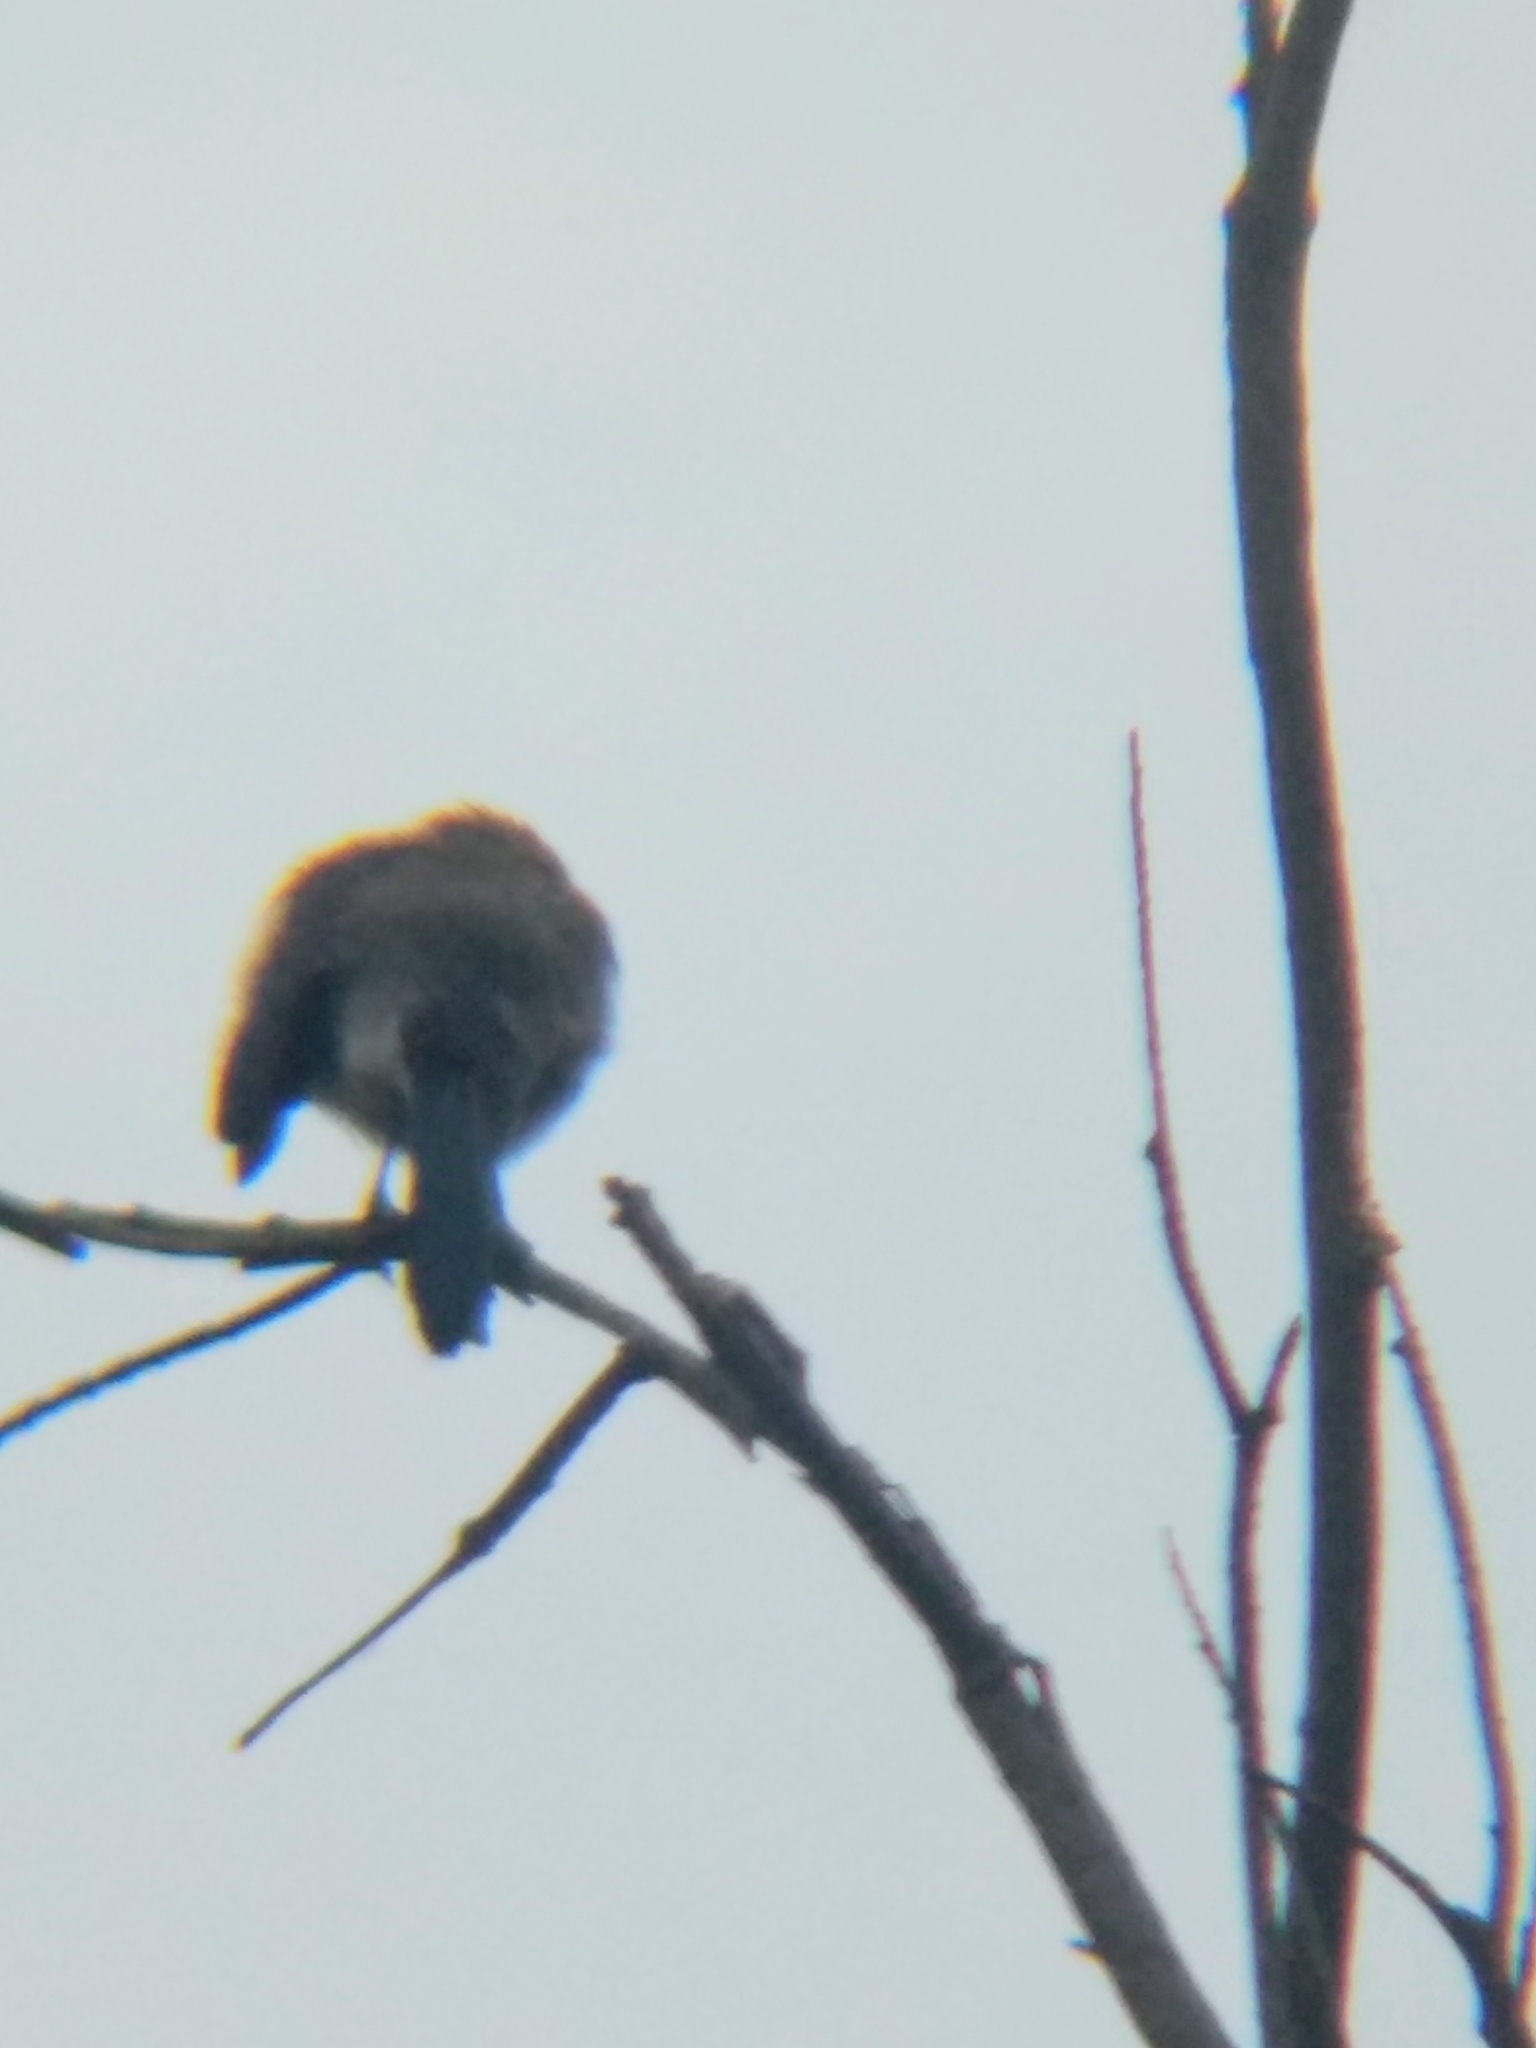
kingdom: Animalia
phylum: Chordata
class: Aves
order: Passeriformes
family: Corvidae
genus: Aphelocoma
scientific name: Aphelocoma californica
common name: California scrub-jay
